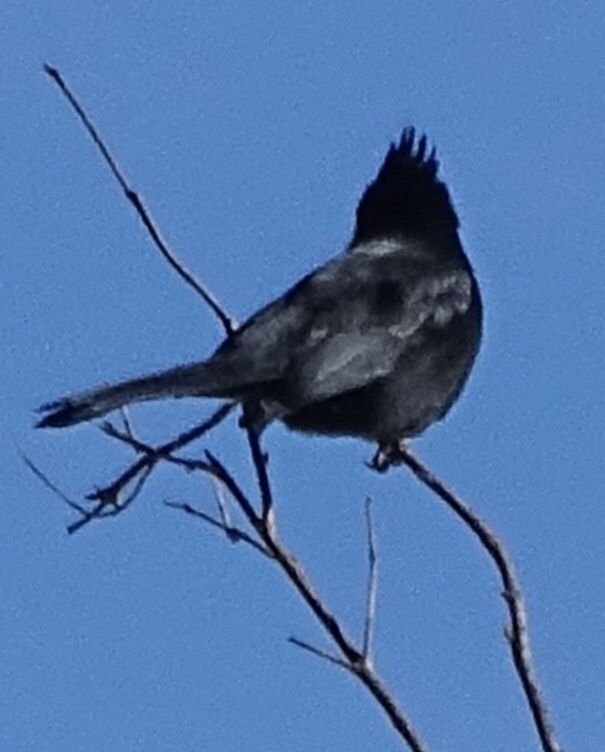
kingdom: Animalia
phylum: Chordata
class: Aves
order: Passeriformes
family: Ptilogonatidae
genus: Phainopepla
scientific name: Phainopepla nitens
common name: Phainopepla
